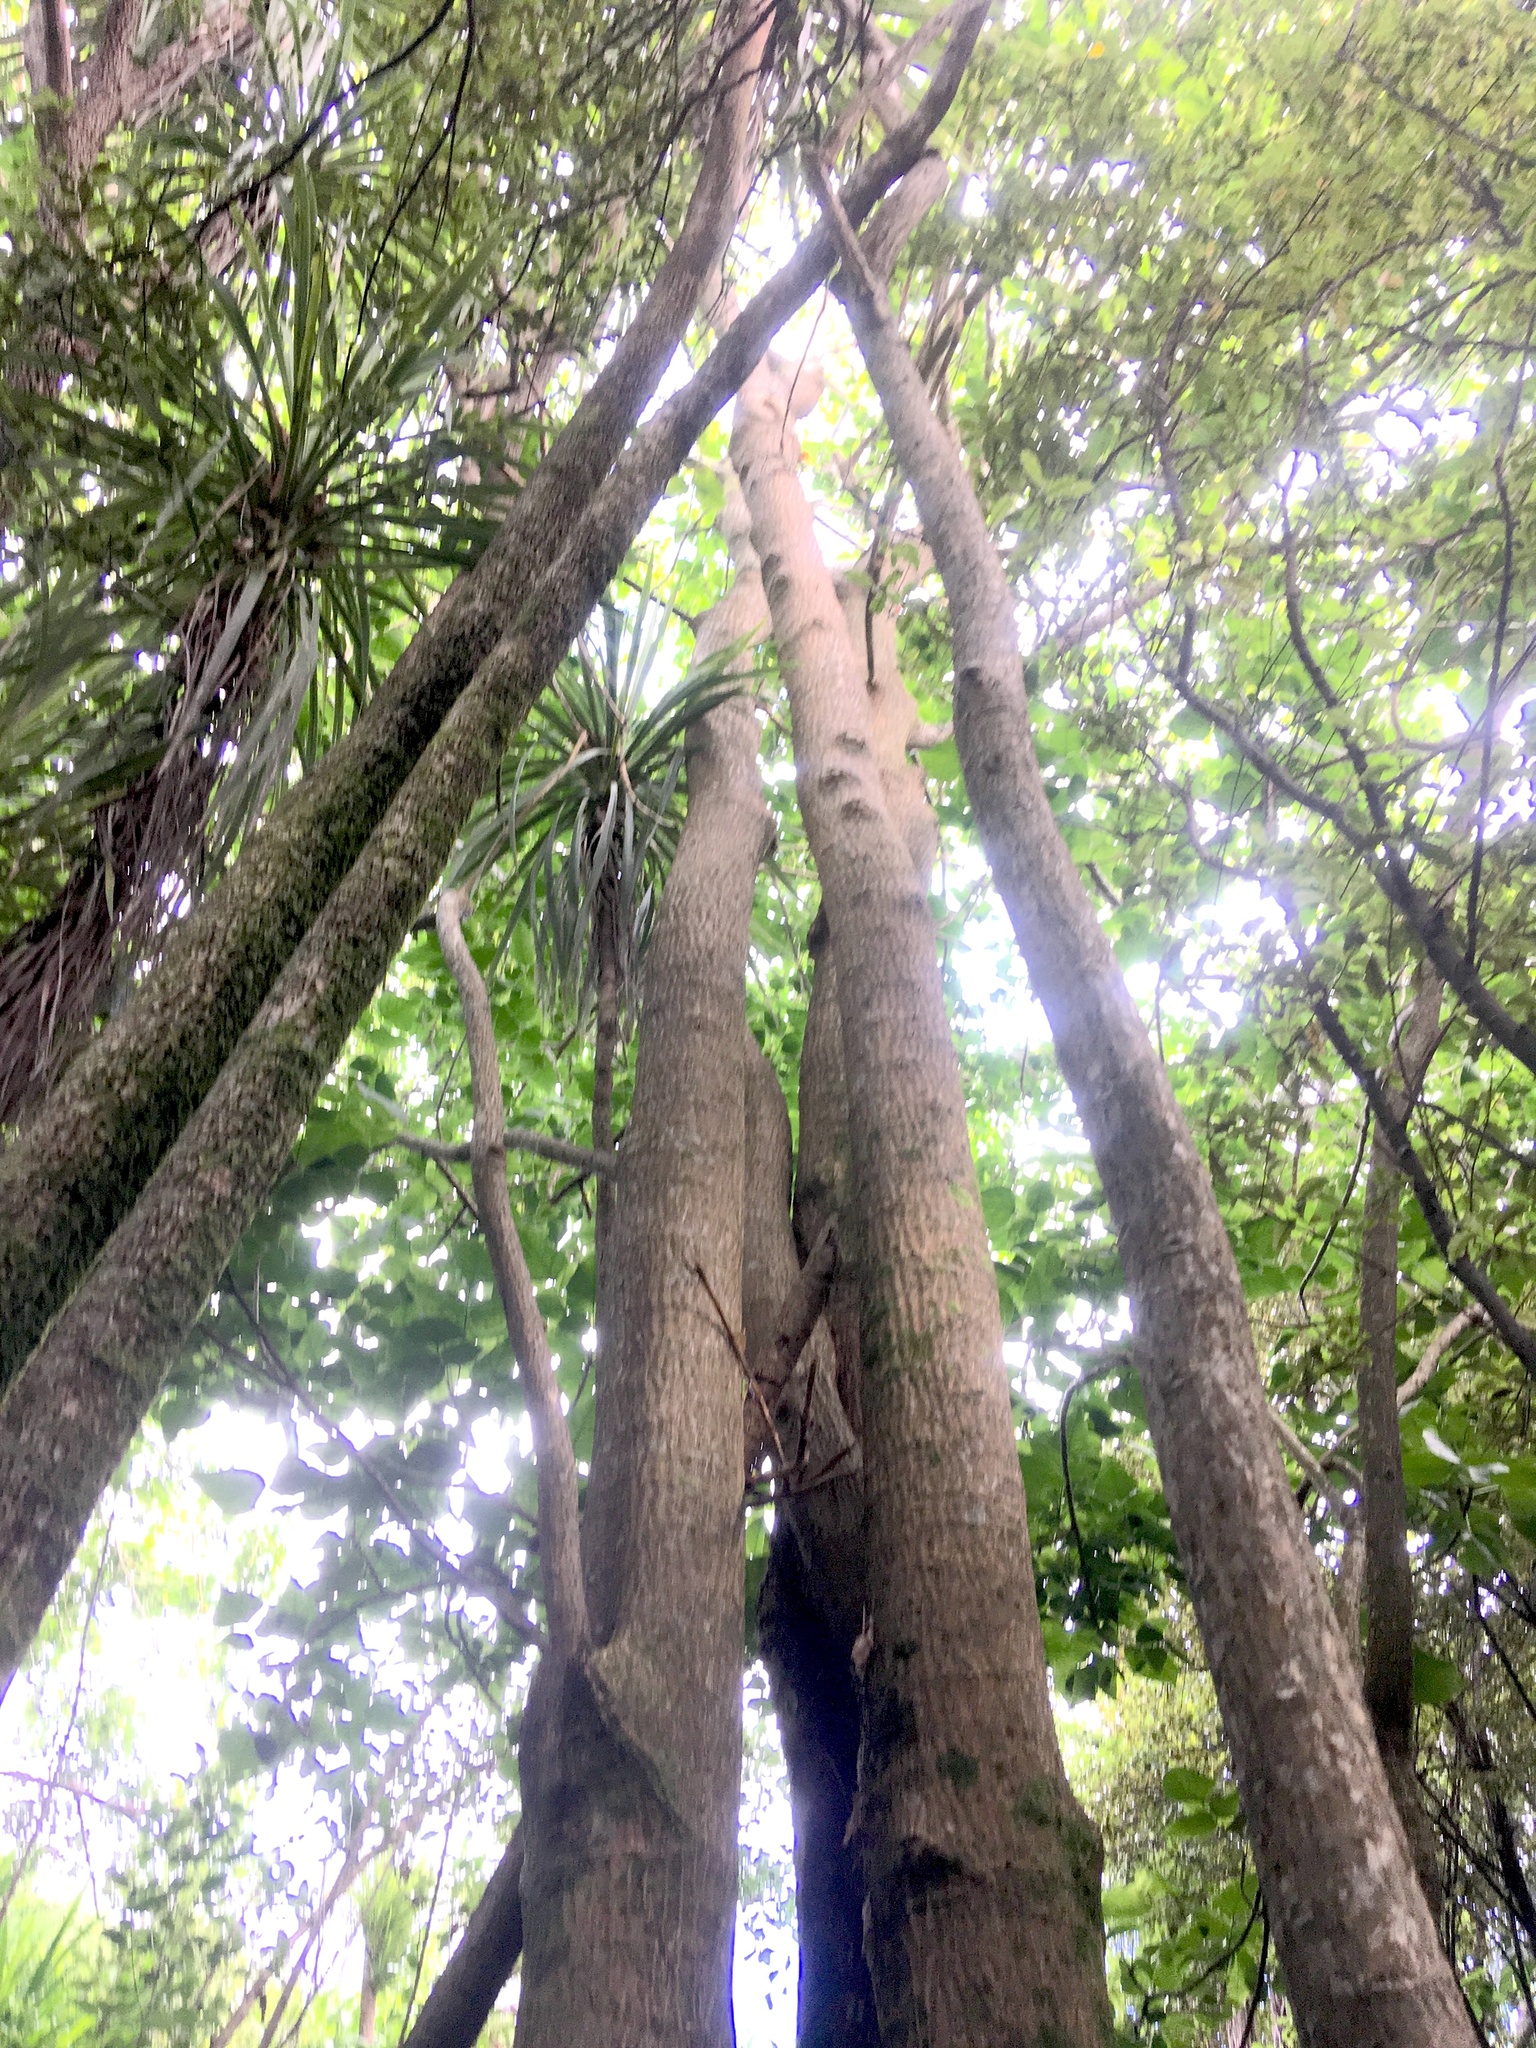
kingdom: Plantae
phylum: Tracheophyta
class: Liliopsida
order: Asparagales
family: Asparagaceae
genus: Cordyline
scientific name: Cordyline australis
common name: Cabbage-palm
